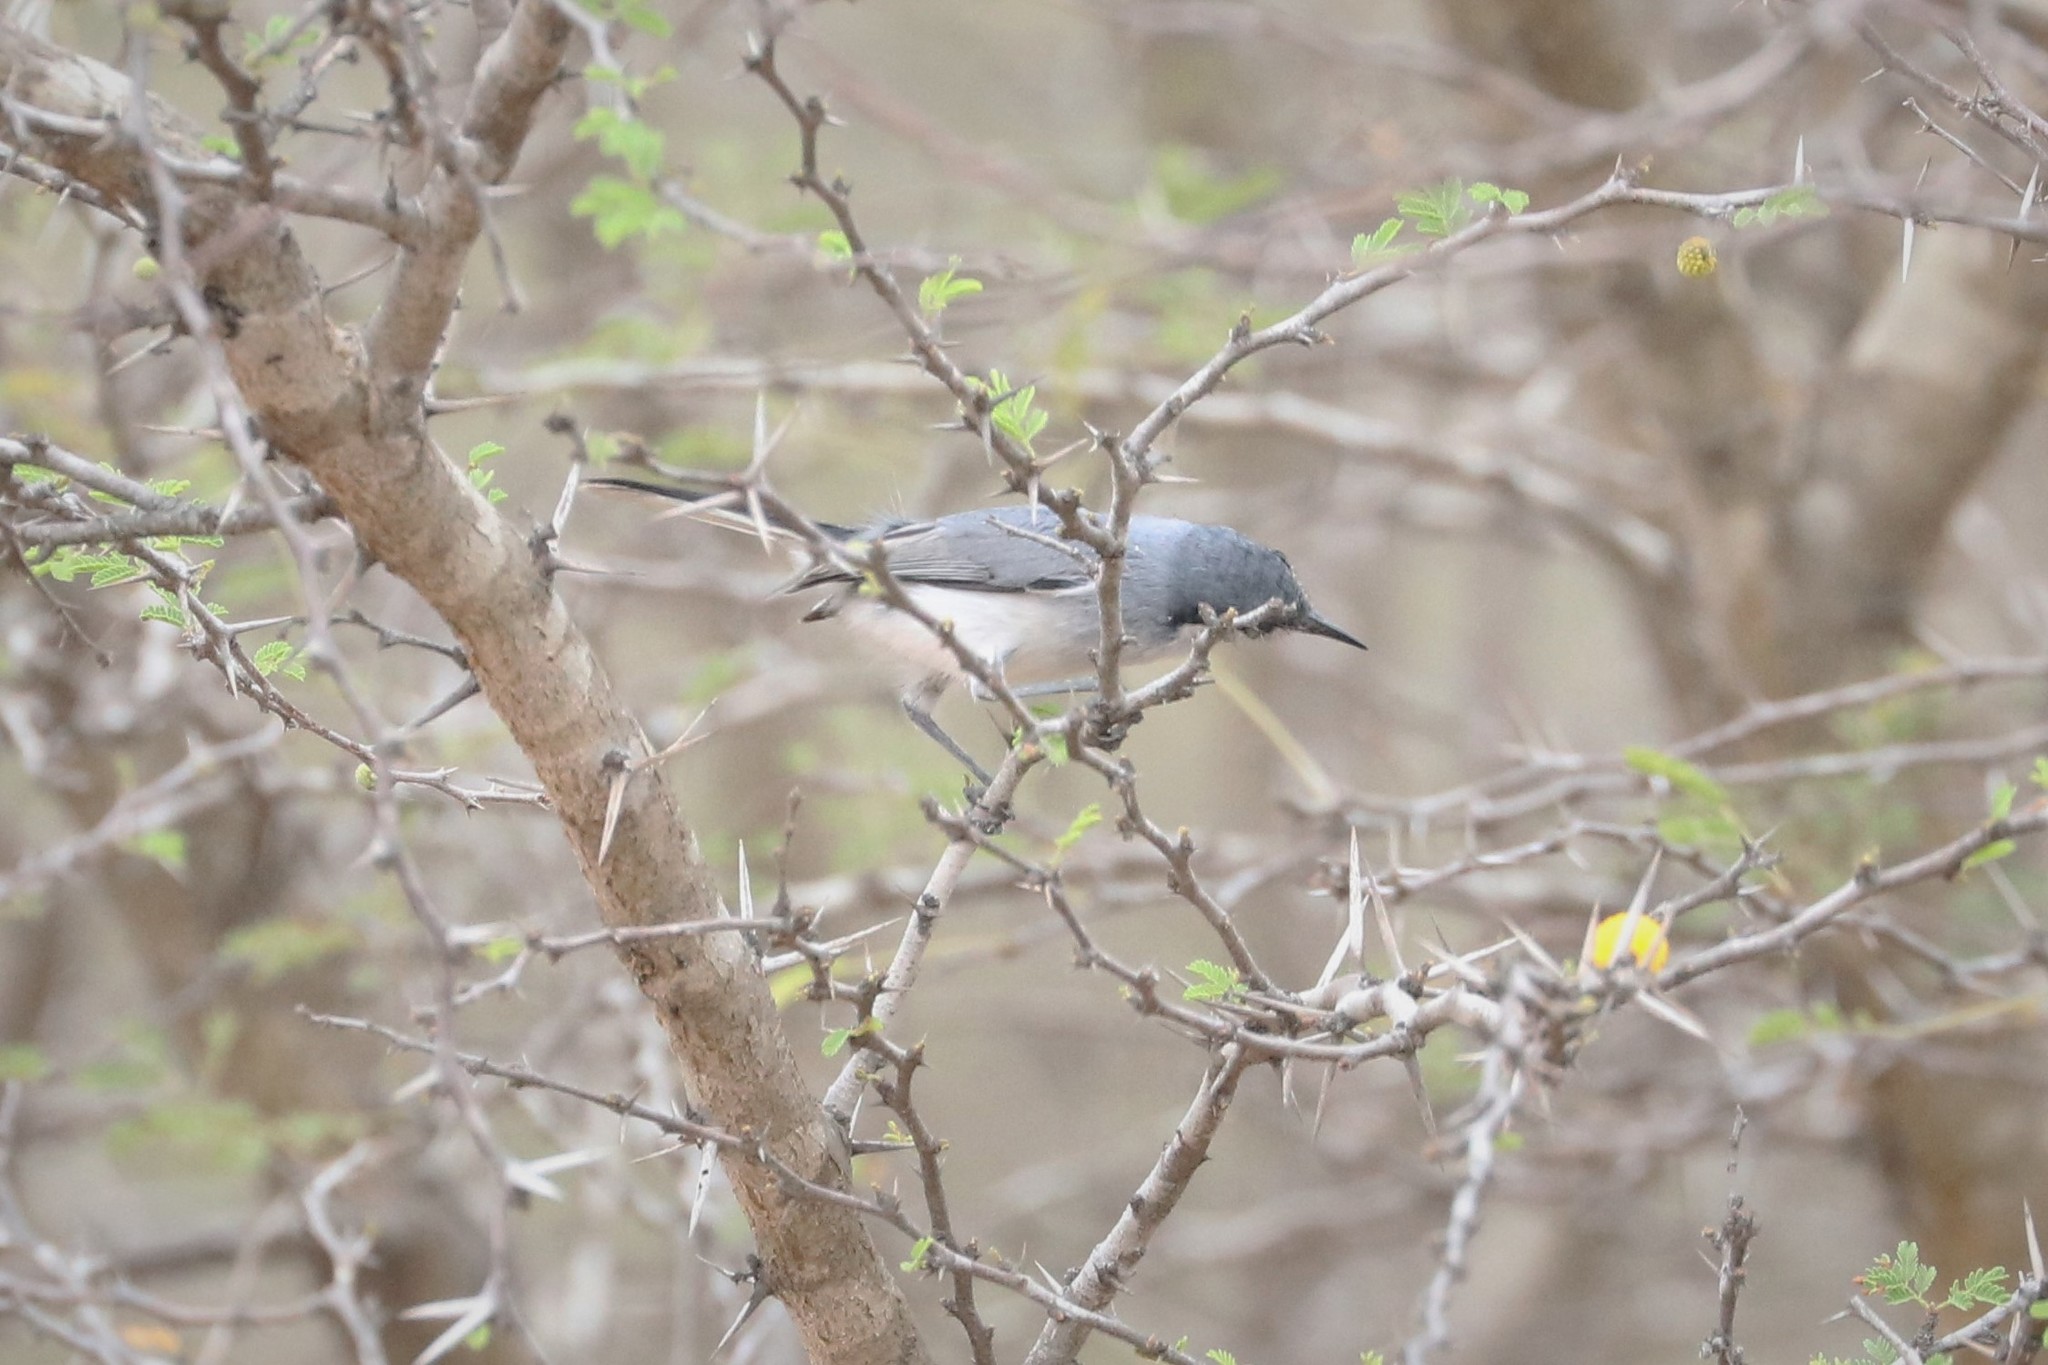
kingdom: Animalia
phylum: Chordata
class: Aves
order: Passeriformes
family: Polioptilidae
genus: Polioptila
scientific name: Polioptila plumbea
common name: Tropical gnatcatcher
